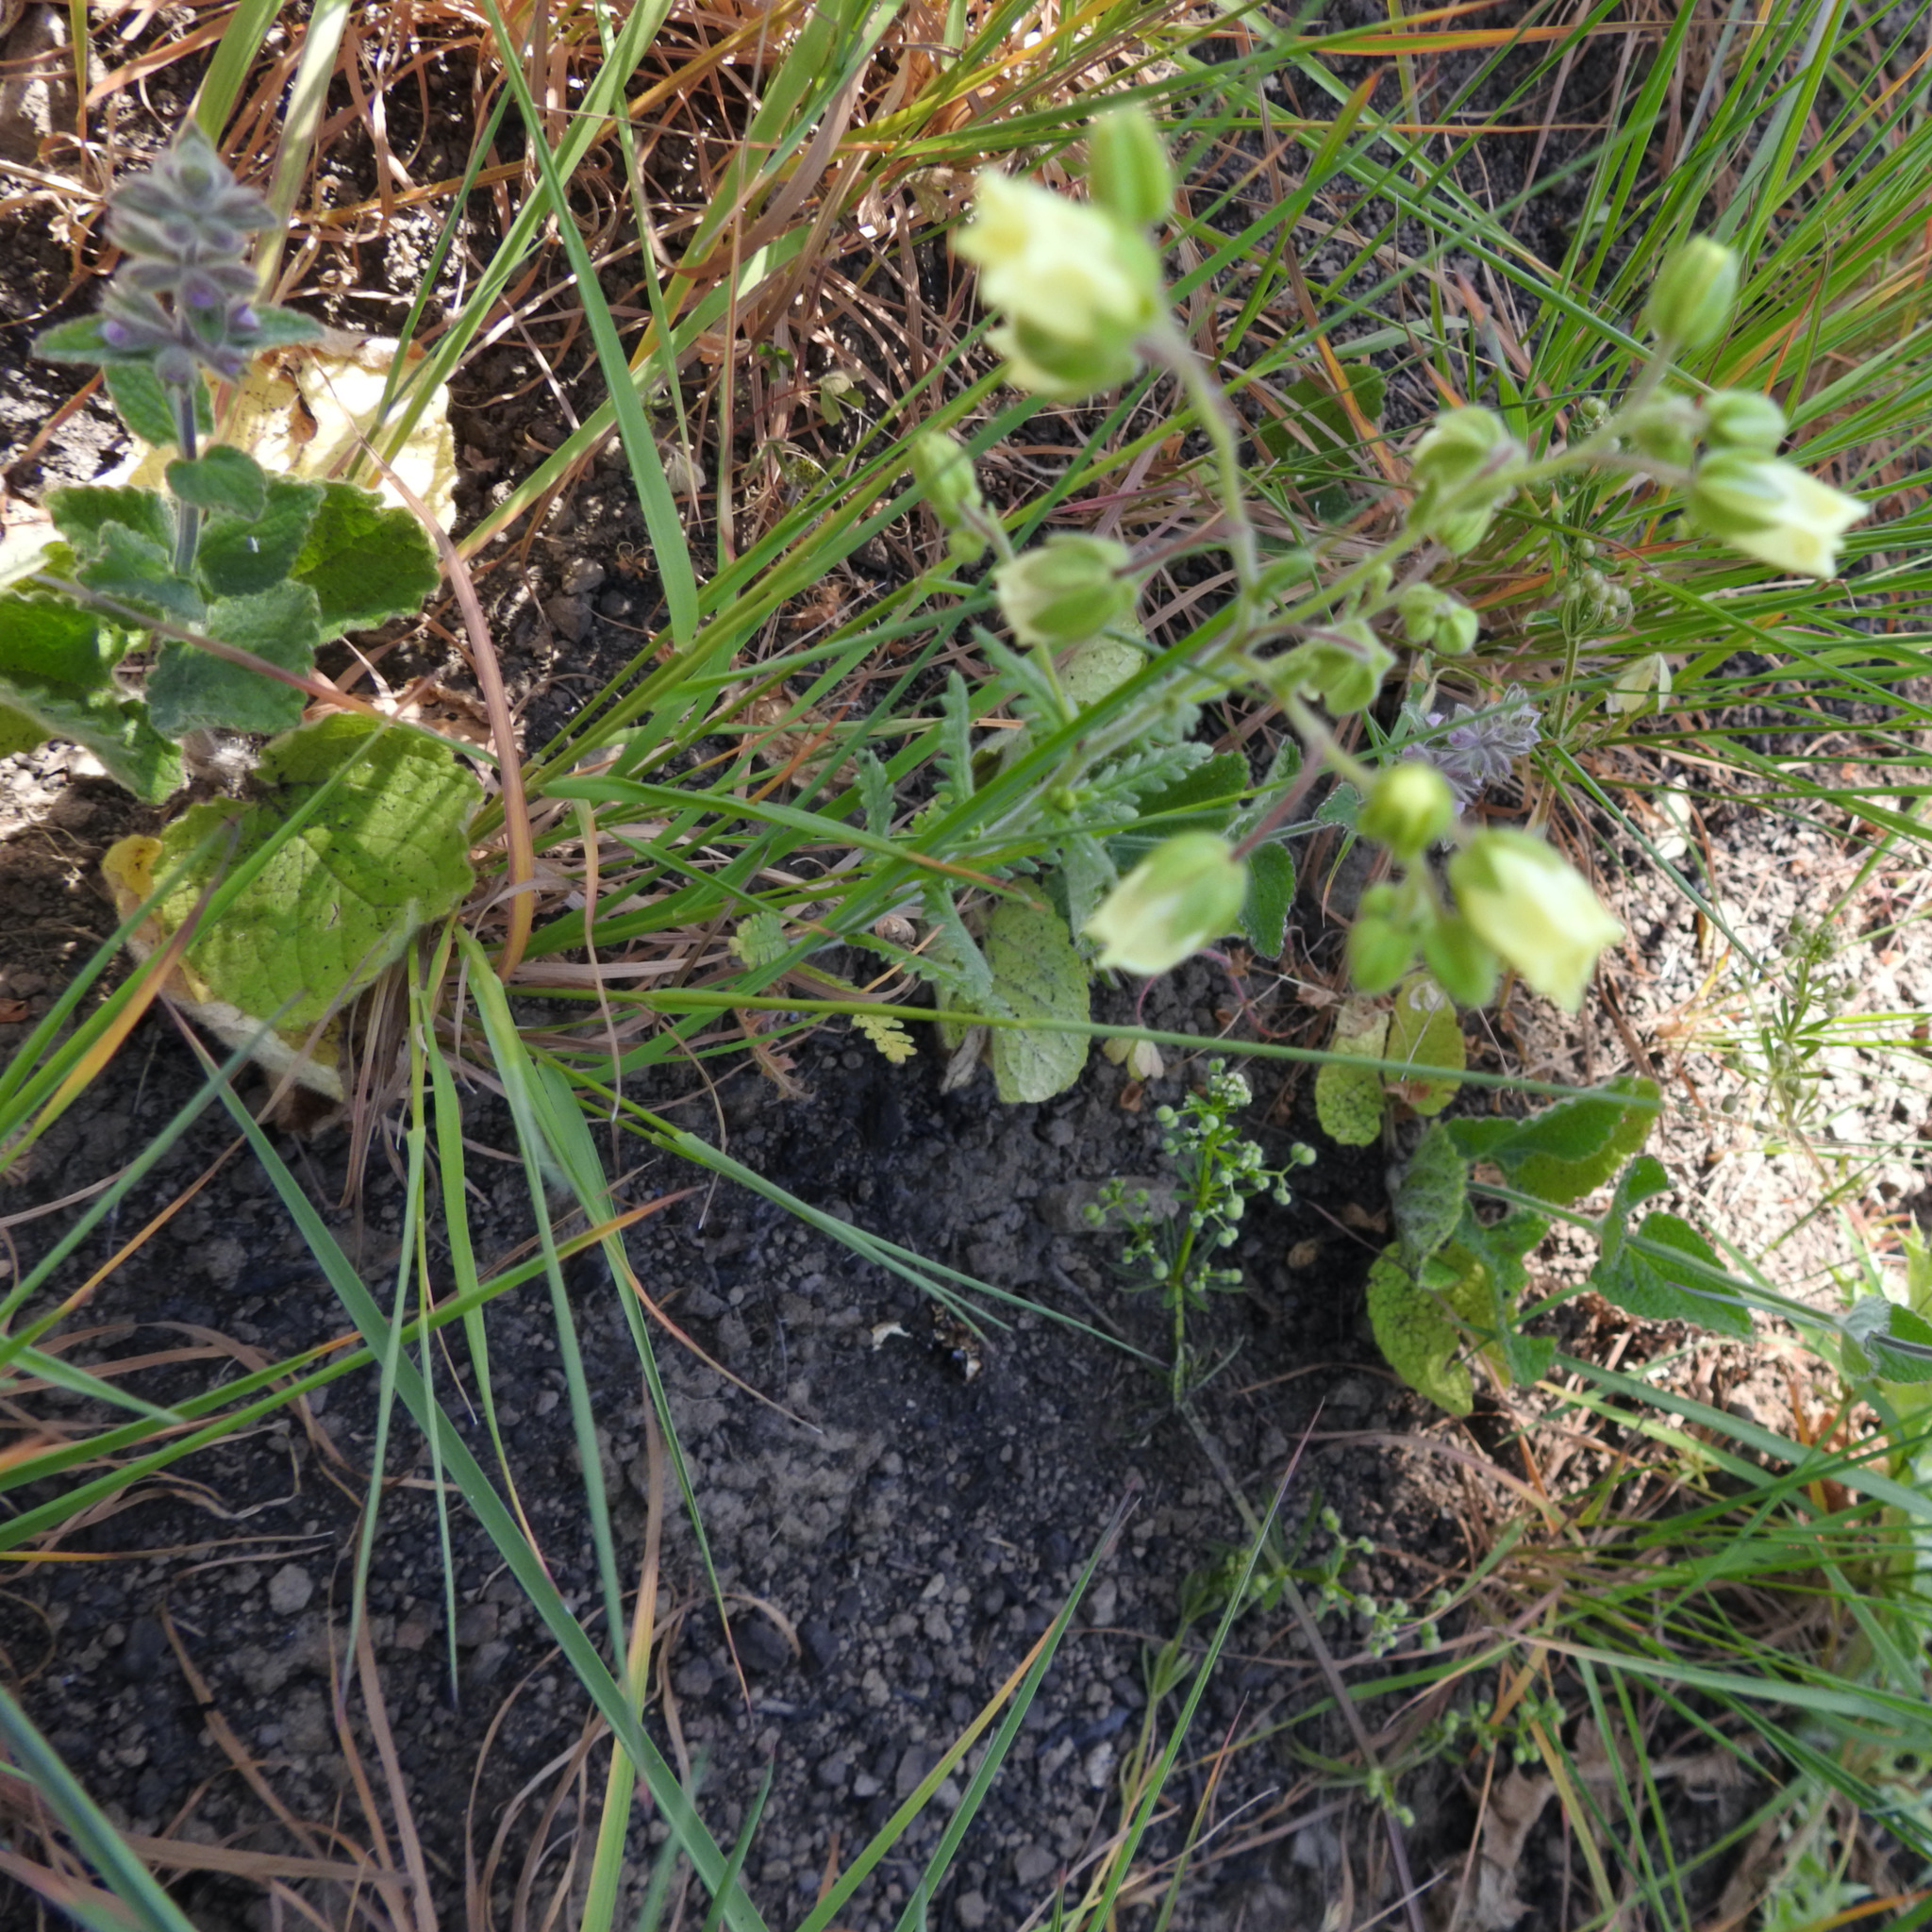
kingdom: Plantae
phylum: Tracheophyta
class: Magnoliopsida
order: Boraginales
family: Hydrophyllaceae
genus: Emmenanthe
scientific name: Emmenanthe penduliflora
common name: Whispering-bells
